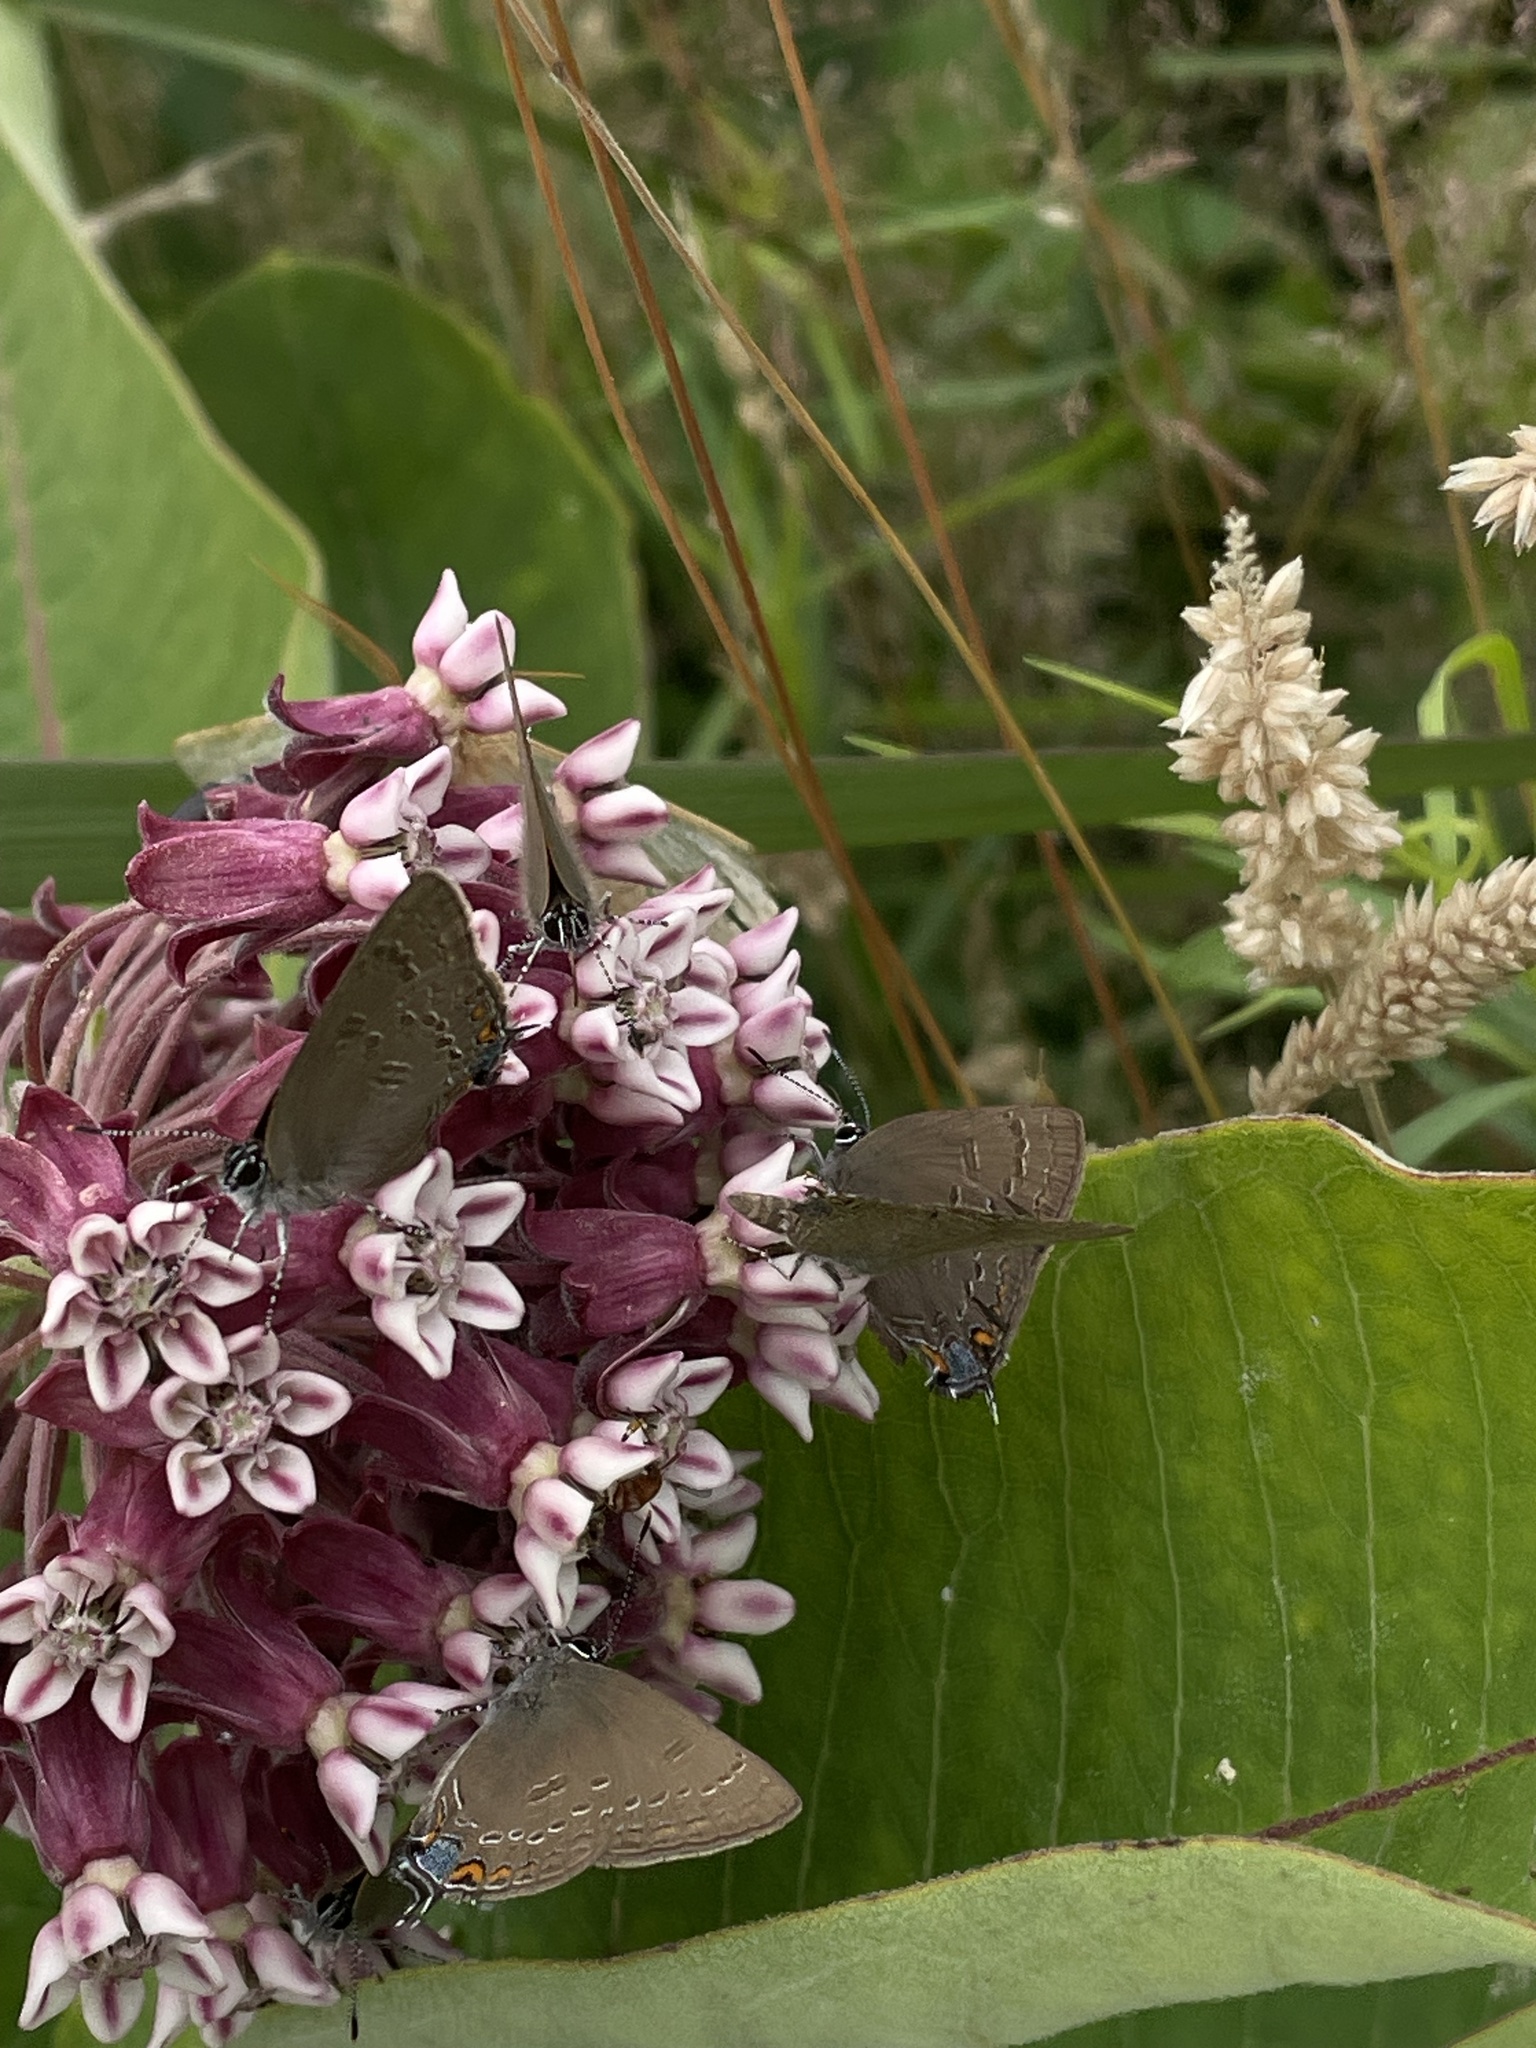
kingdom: Animalia
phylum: Arthropoda
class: Insecta
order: Lepidoptera
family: Lycaenidae
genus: Satyrium
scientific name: Satyrium edwardsii
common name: Edwards' hairstreak
